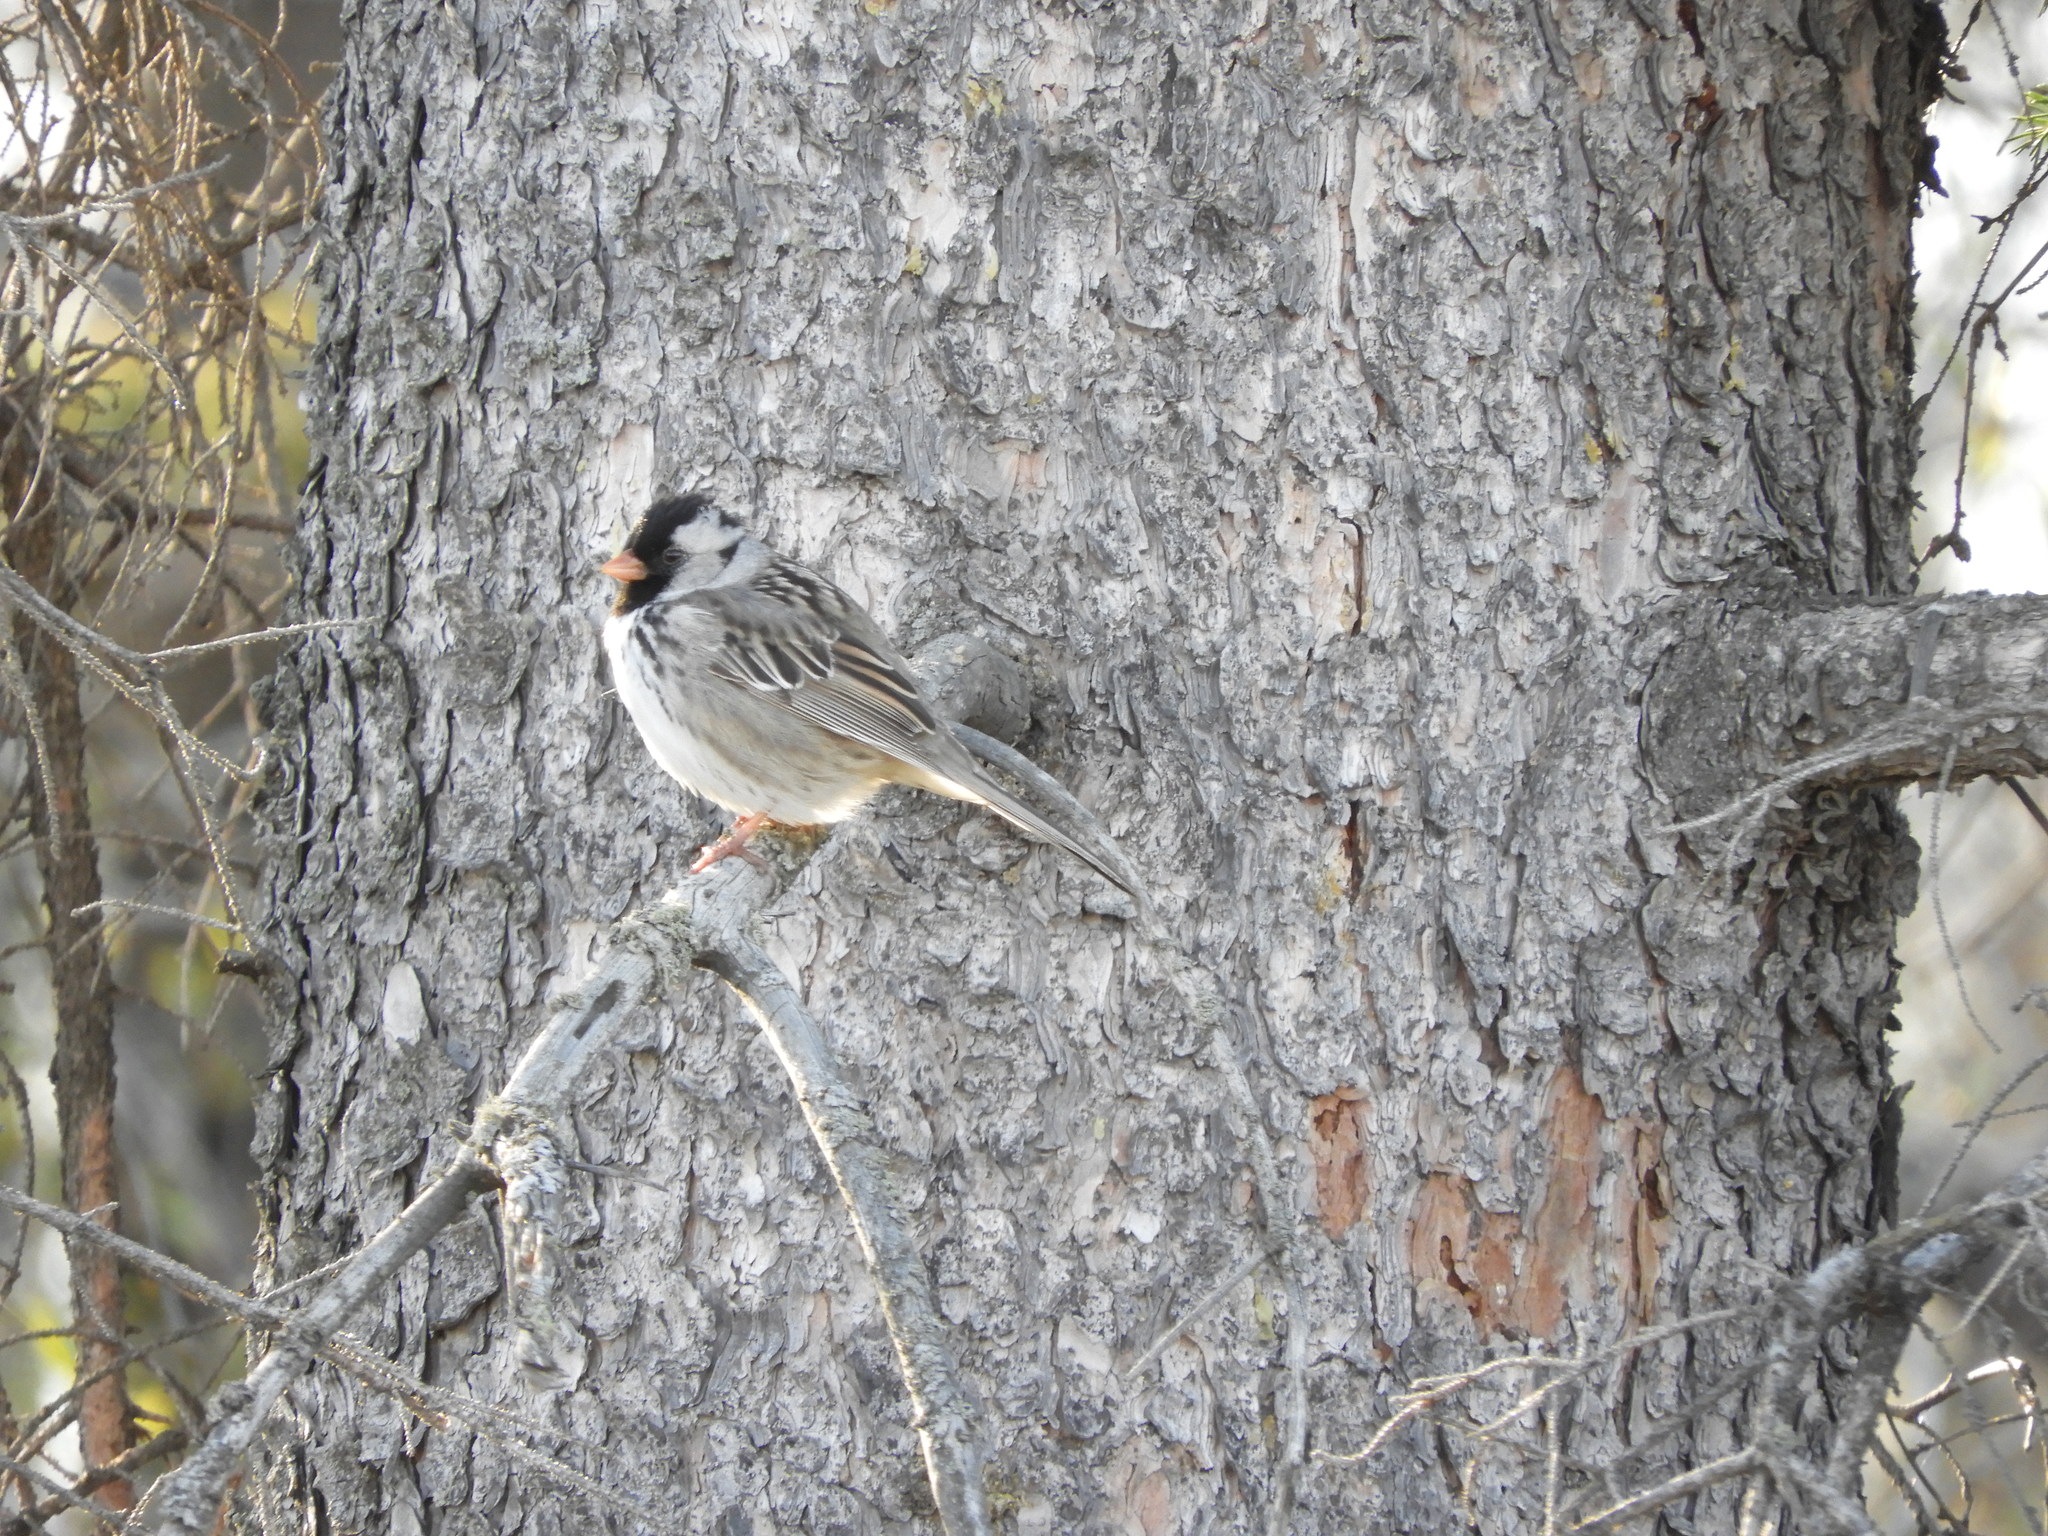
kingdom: Animalia
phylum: Chordata
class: Aves
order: Passeriformes
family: Passerellidae
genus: Zonotrichia
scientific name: Zonotrichia querula
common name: Harris's sparrow
